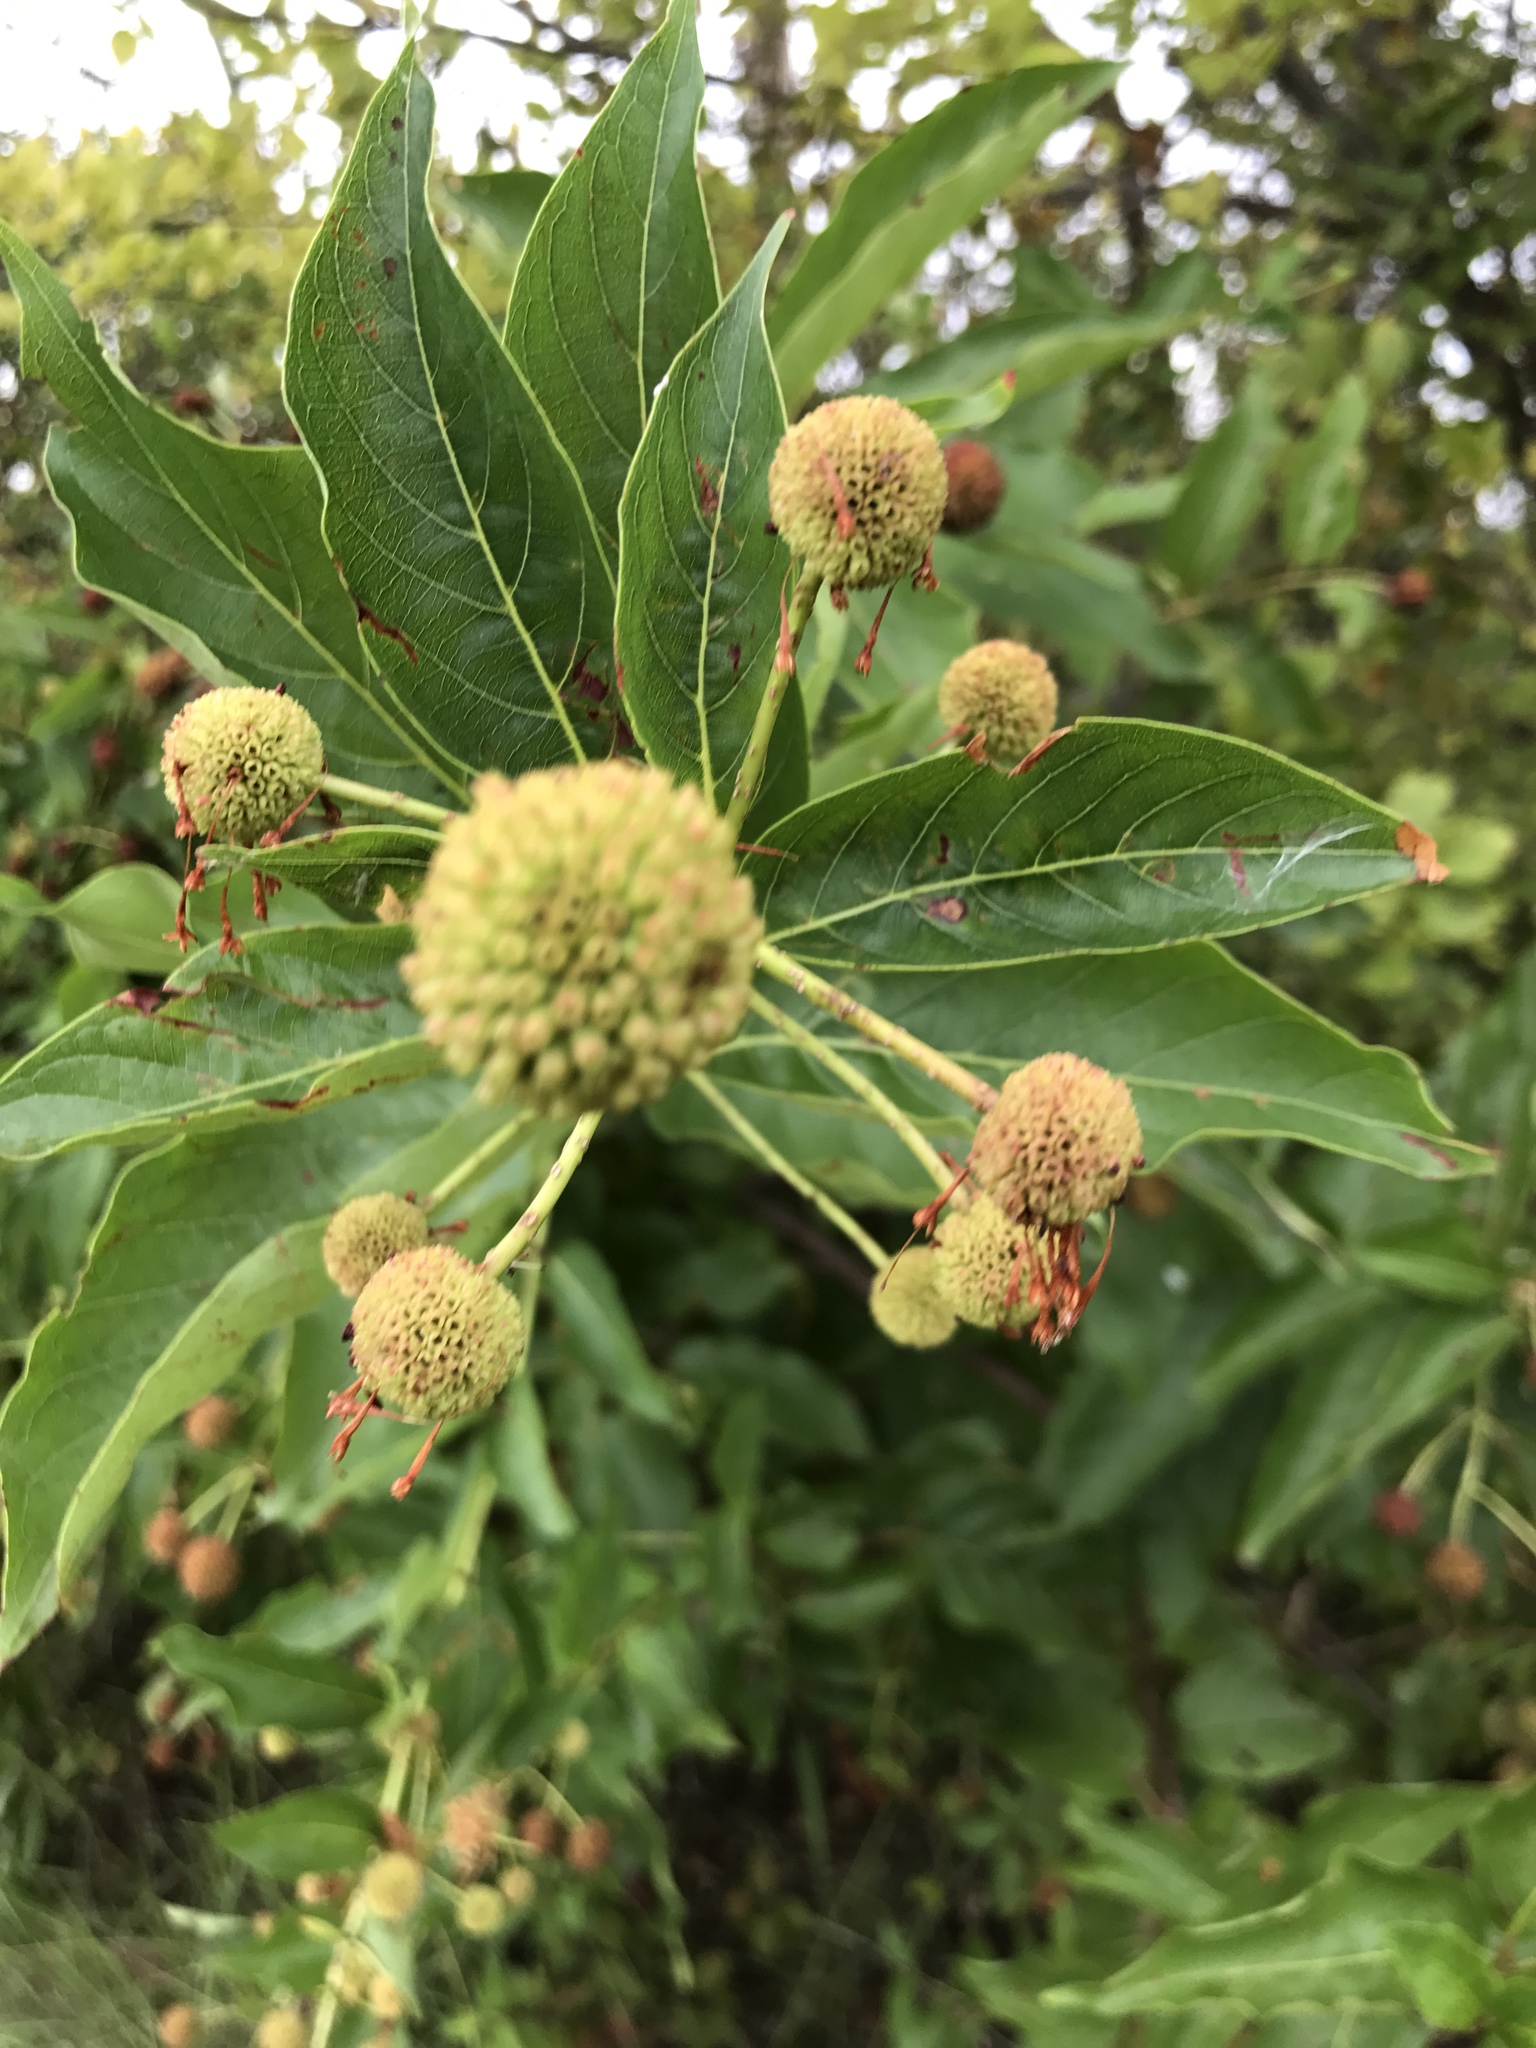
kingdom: Plantae
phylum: Tracheophyta
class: Magnoliopsida
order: Gentianales
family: Rubiaceae
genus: Cephalanthus
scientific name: Cephalanthus occidentalis
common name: Button-willow
